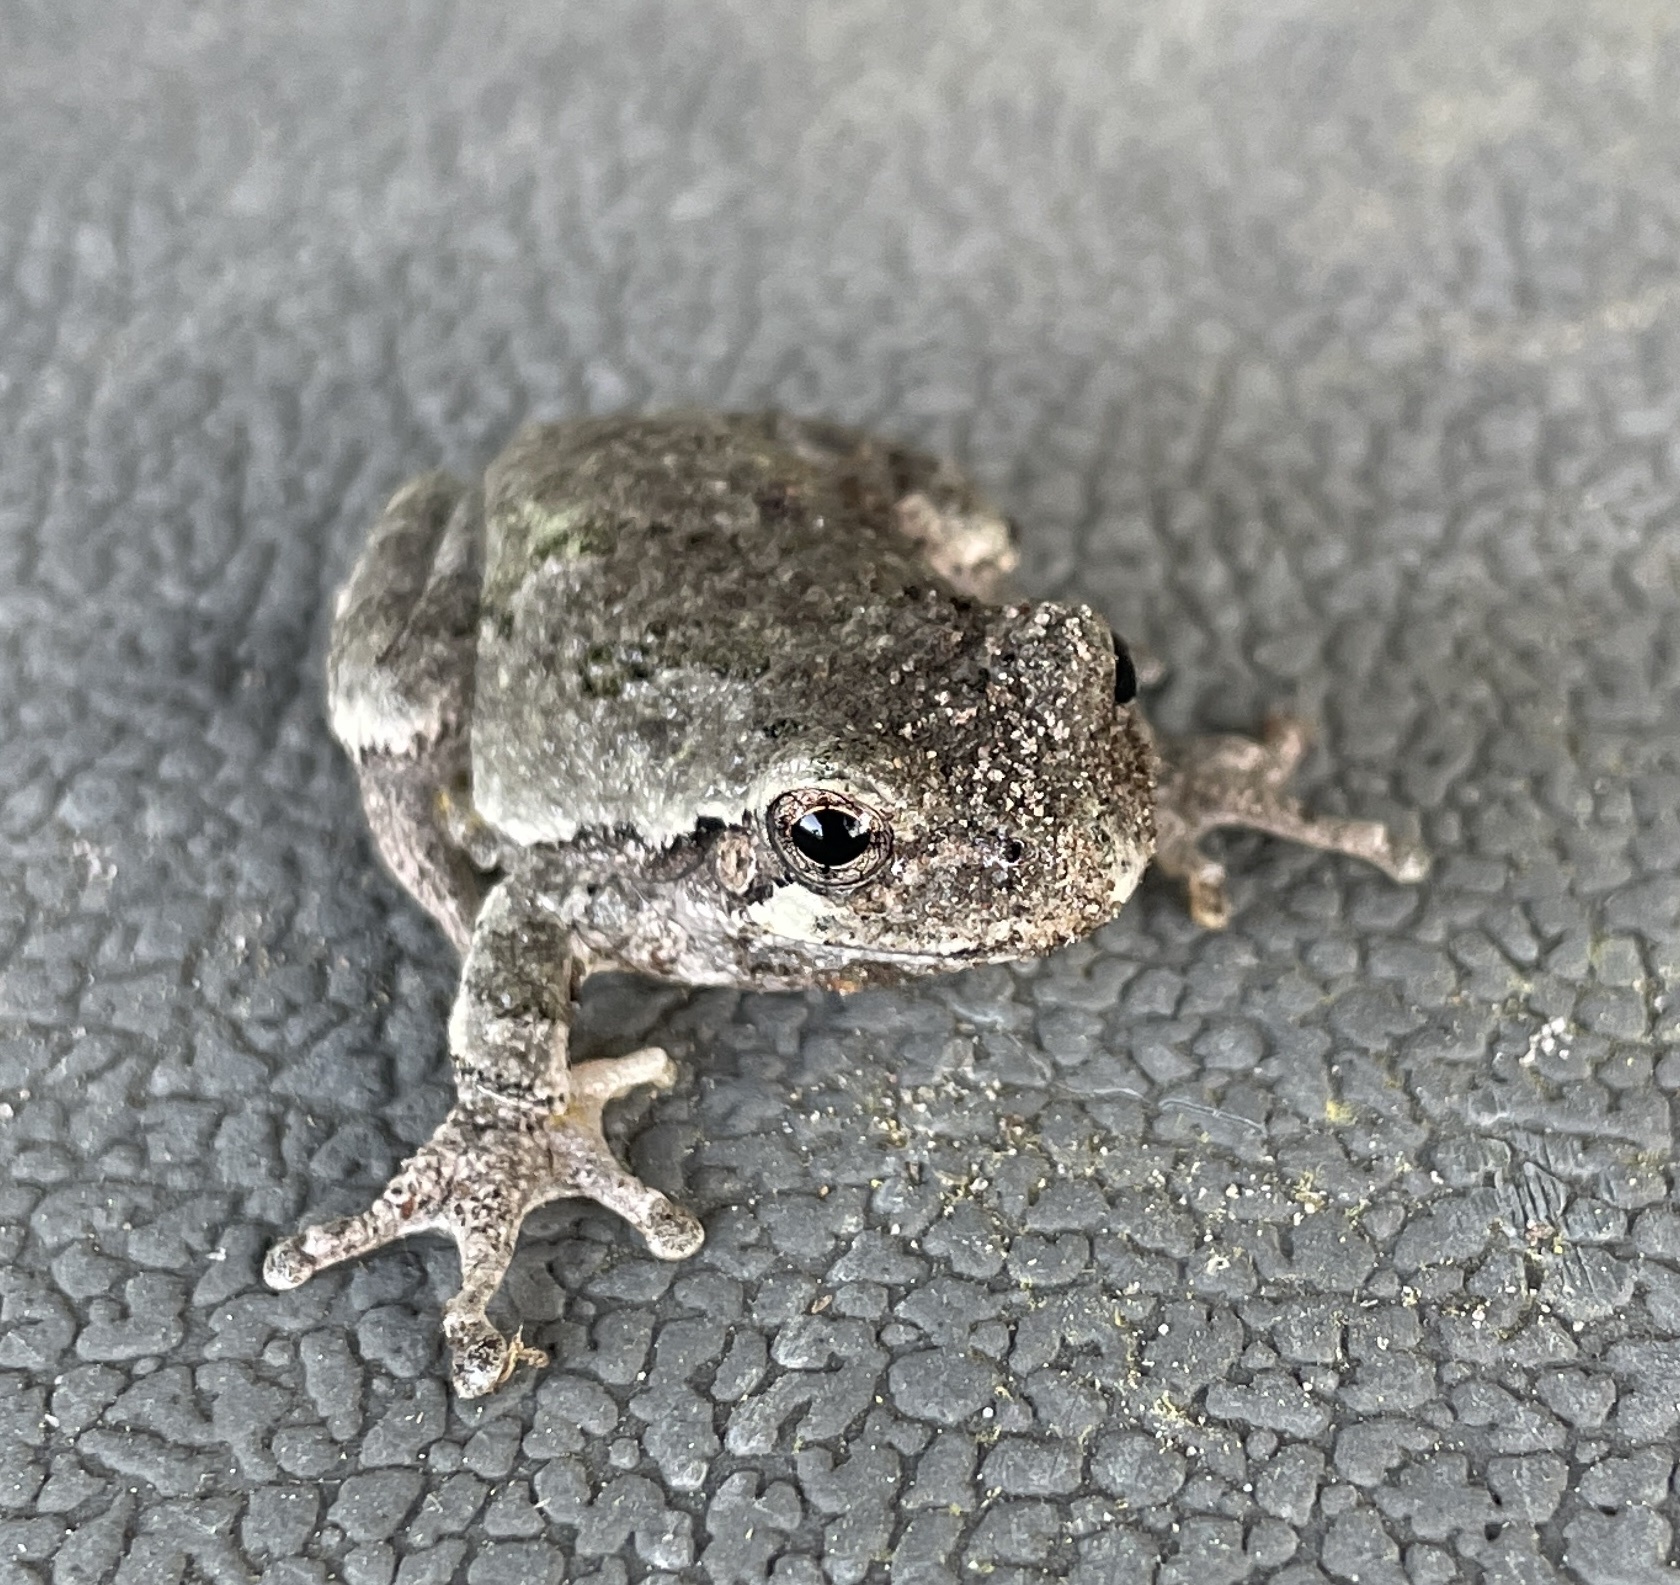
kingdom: Animalia
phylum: Chordata
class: Amphibia
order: Anura
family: Hylidae
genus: Hyla
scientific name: Hyla
